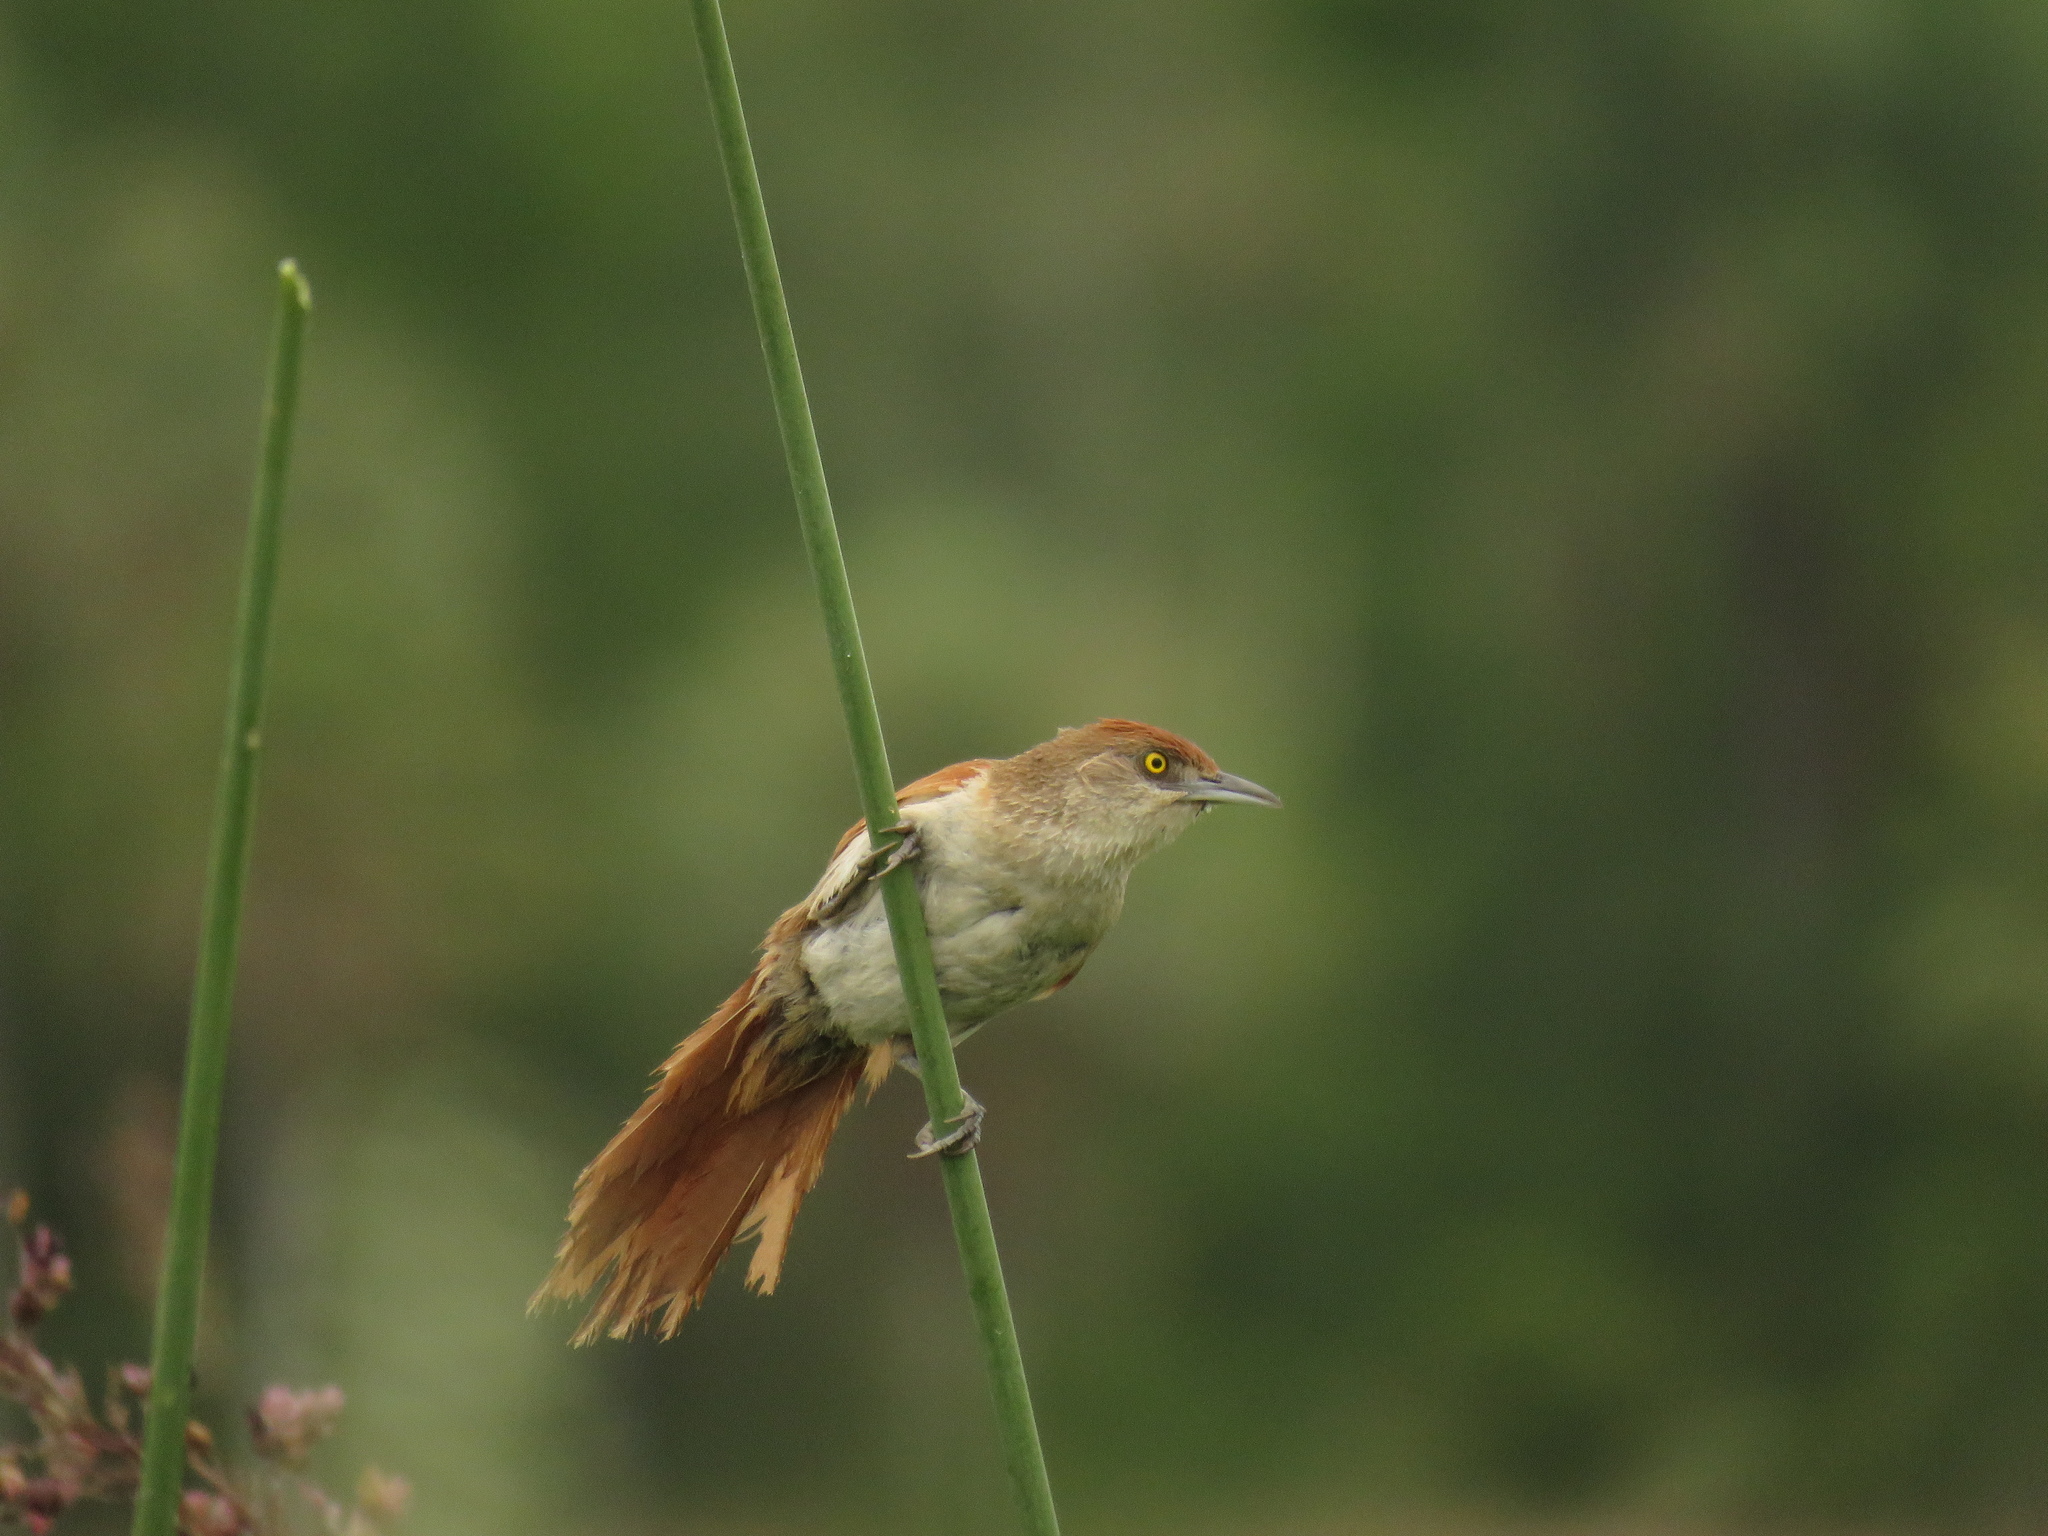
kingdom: Animalia
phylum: Chordata
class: Aves
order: Passeriformes
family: Furnariidae
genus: Phacellodomus
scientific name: Phacellodomus ruber
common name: Greater thornbird
